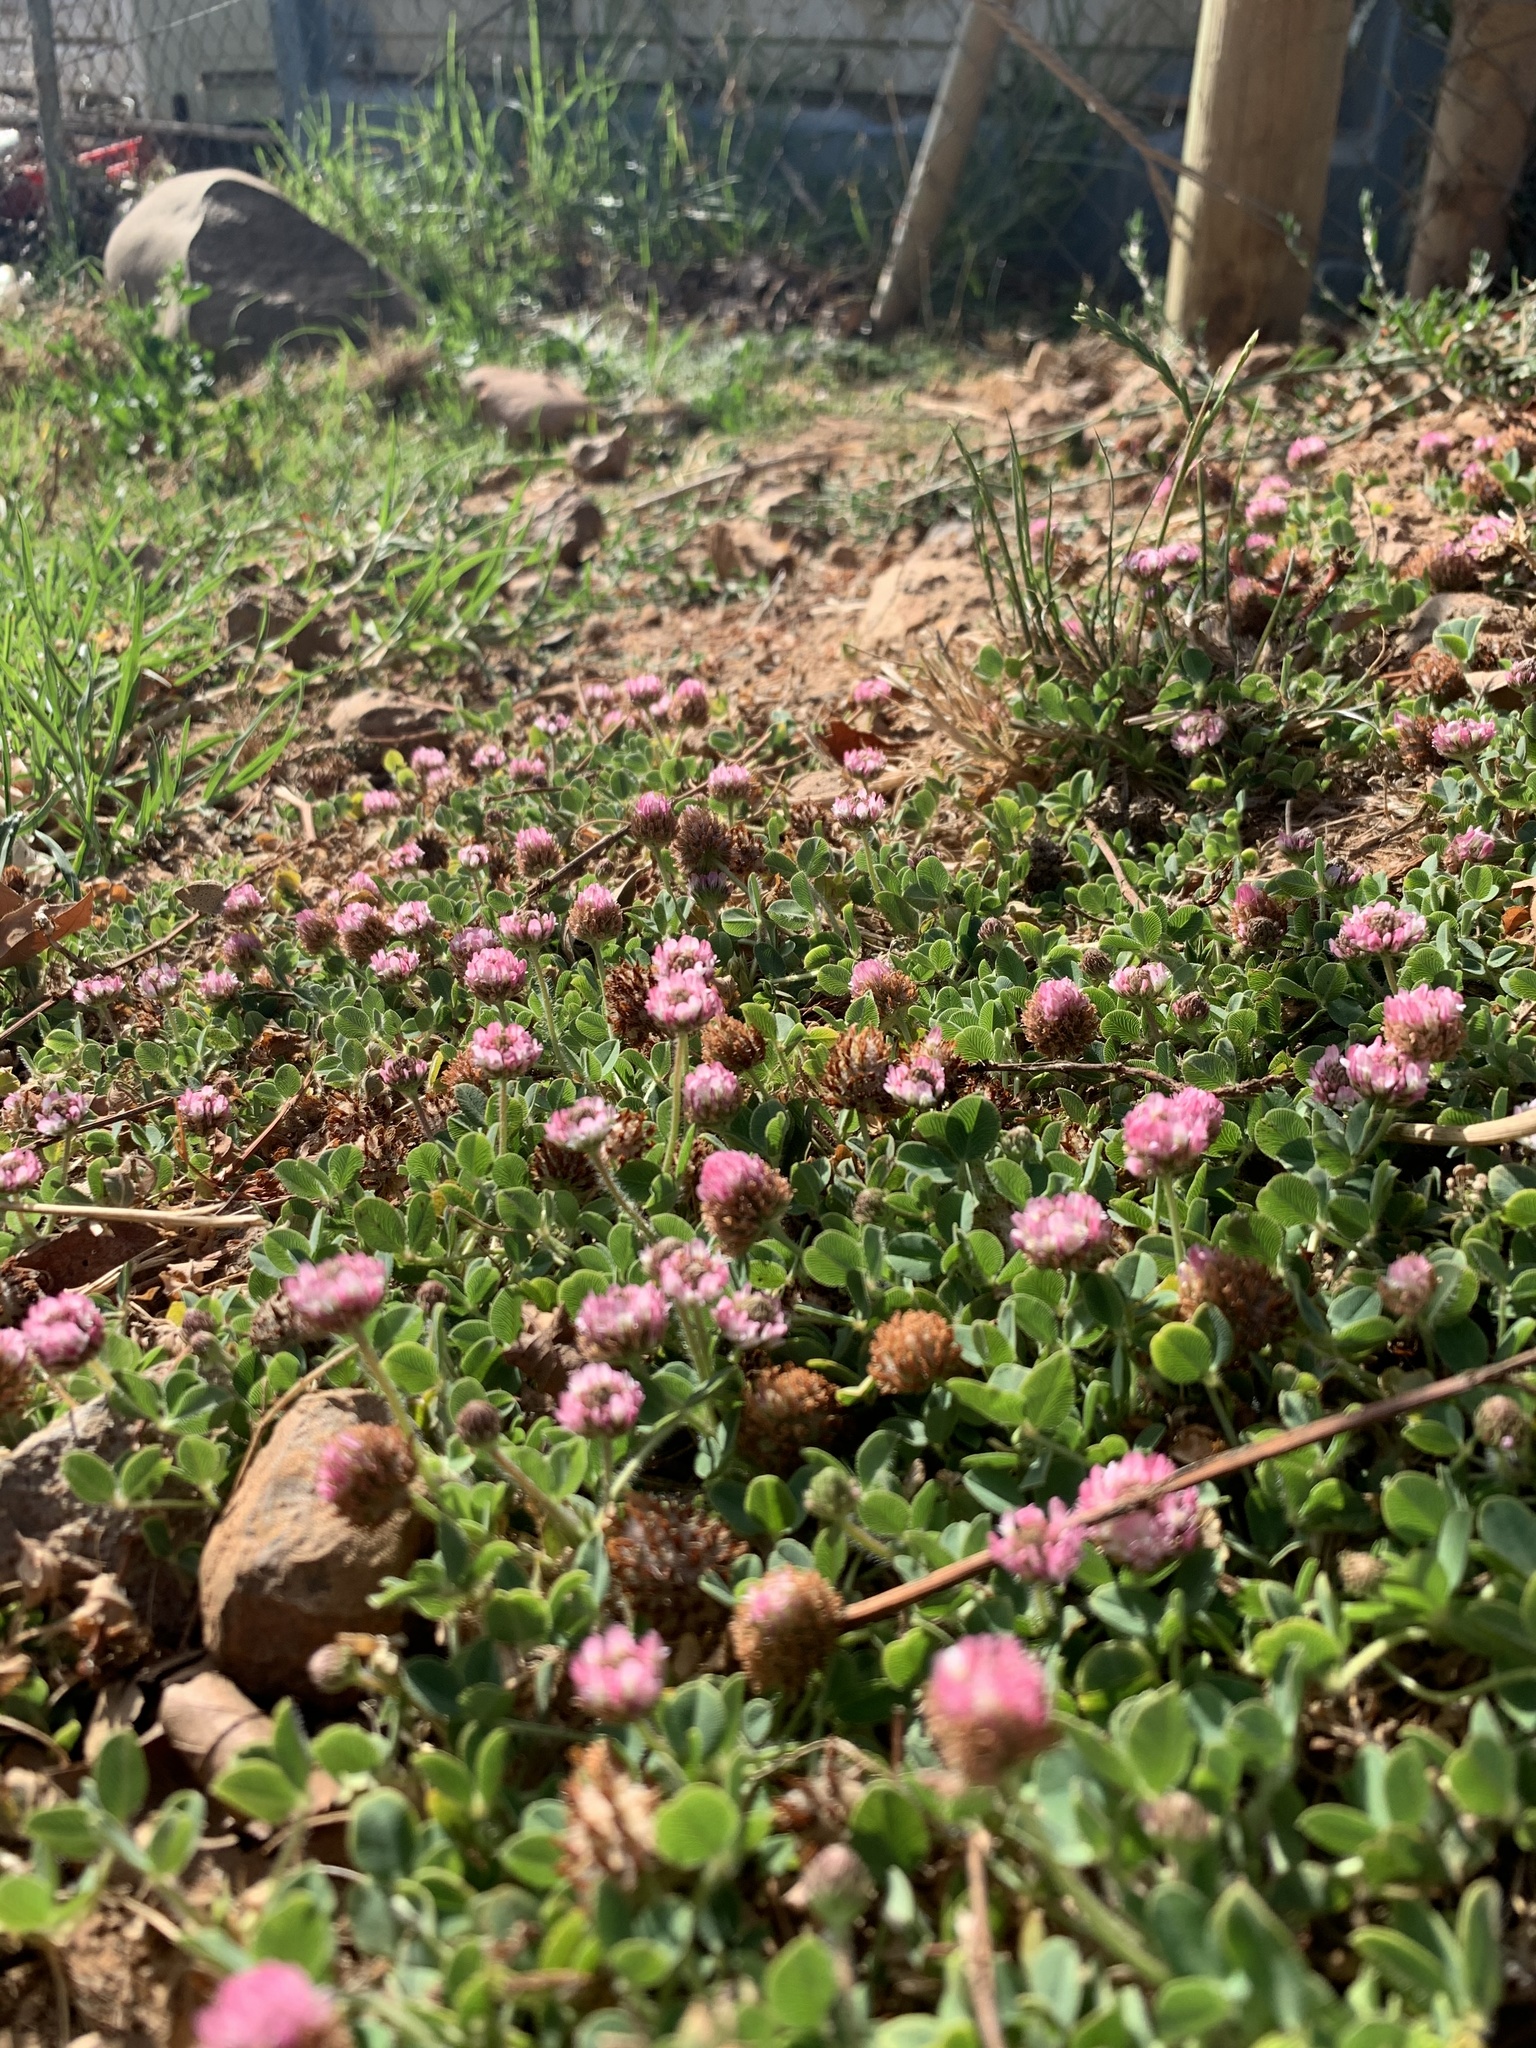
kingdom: Plantae
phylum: Tracheophyta
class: Magnoliopsida
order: Fabales
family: Fabaceae
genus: Trifolium
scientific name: Trifolium fragiferum
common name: Strawberry clover
